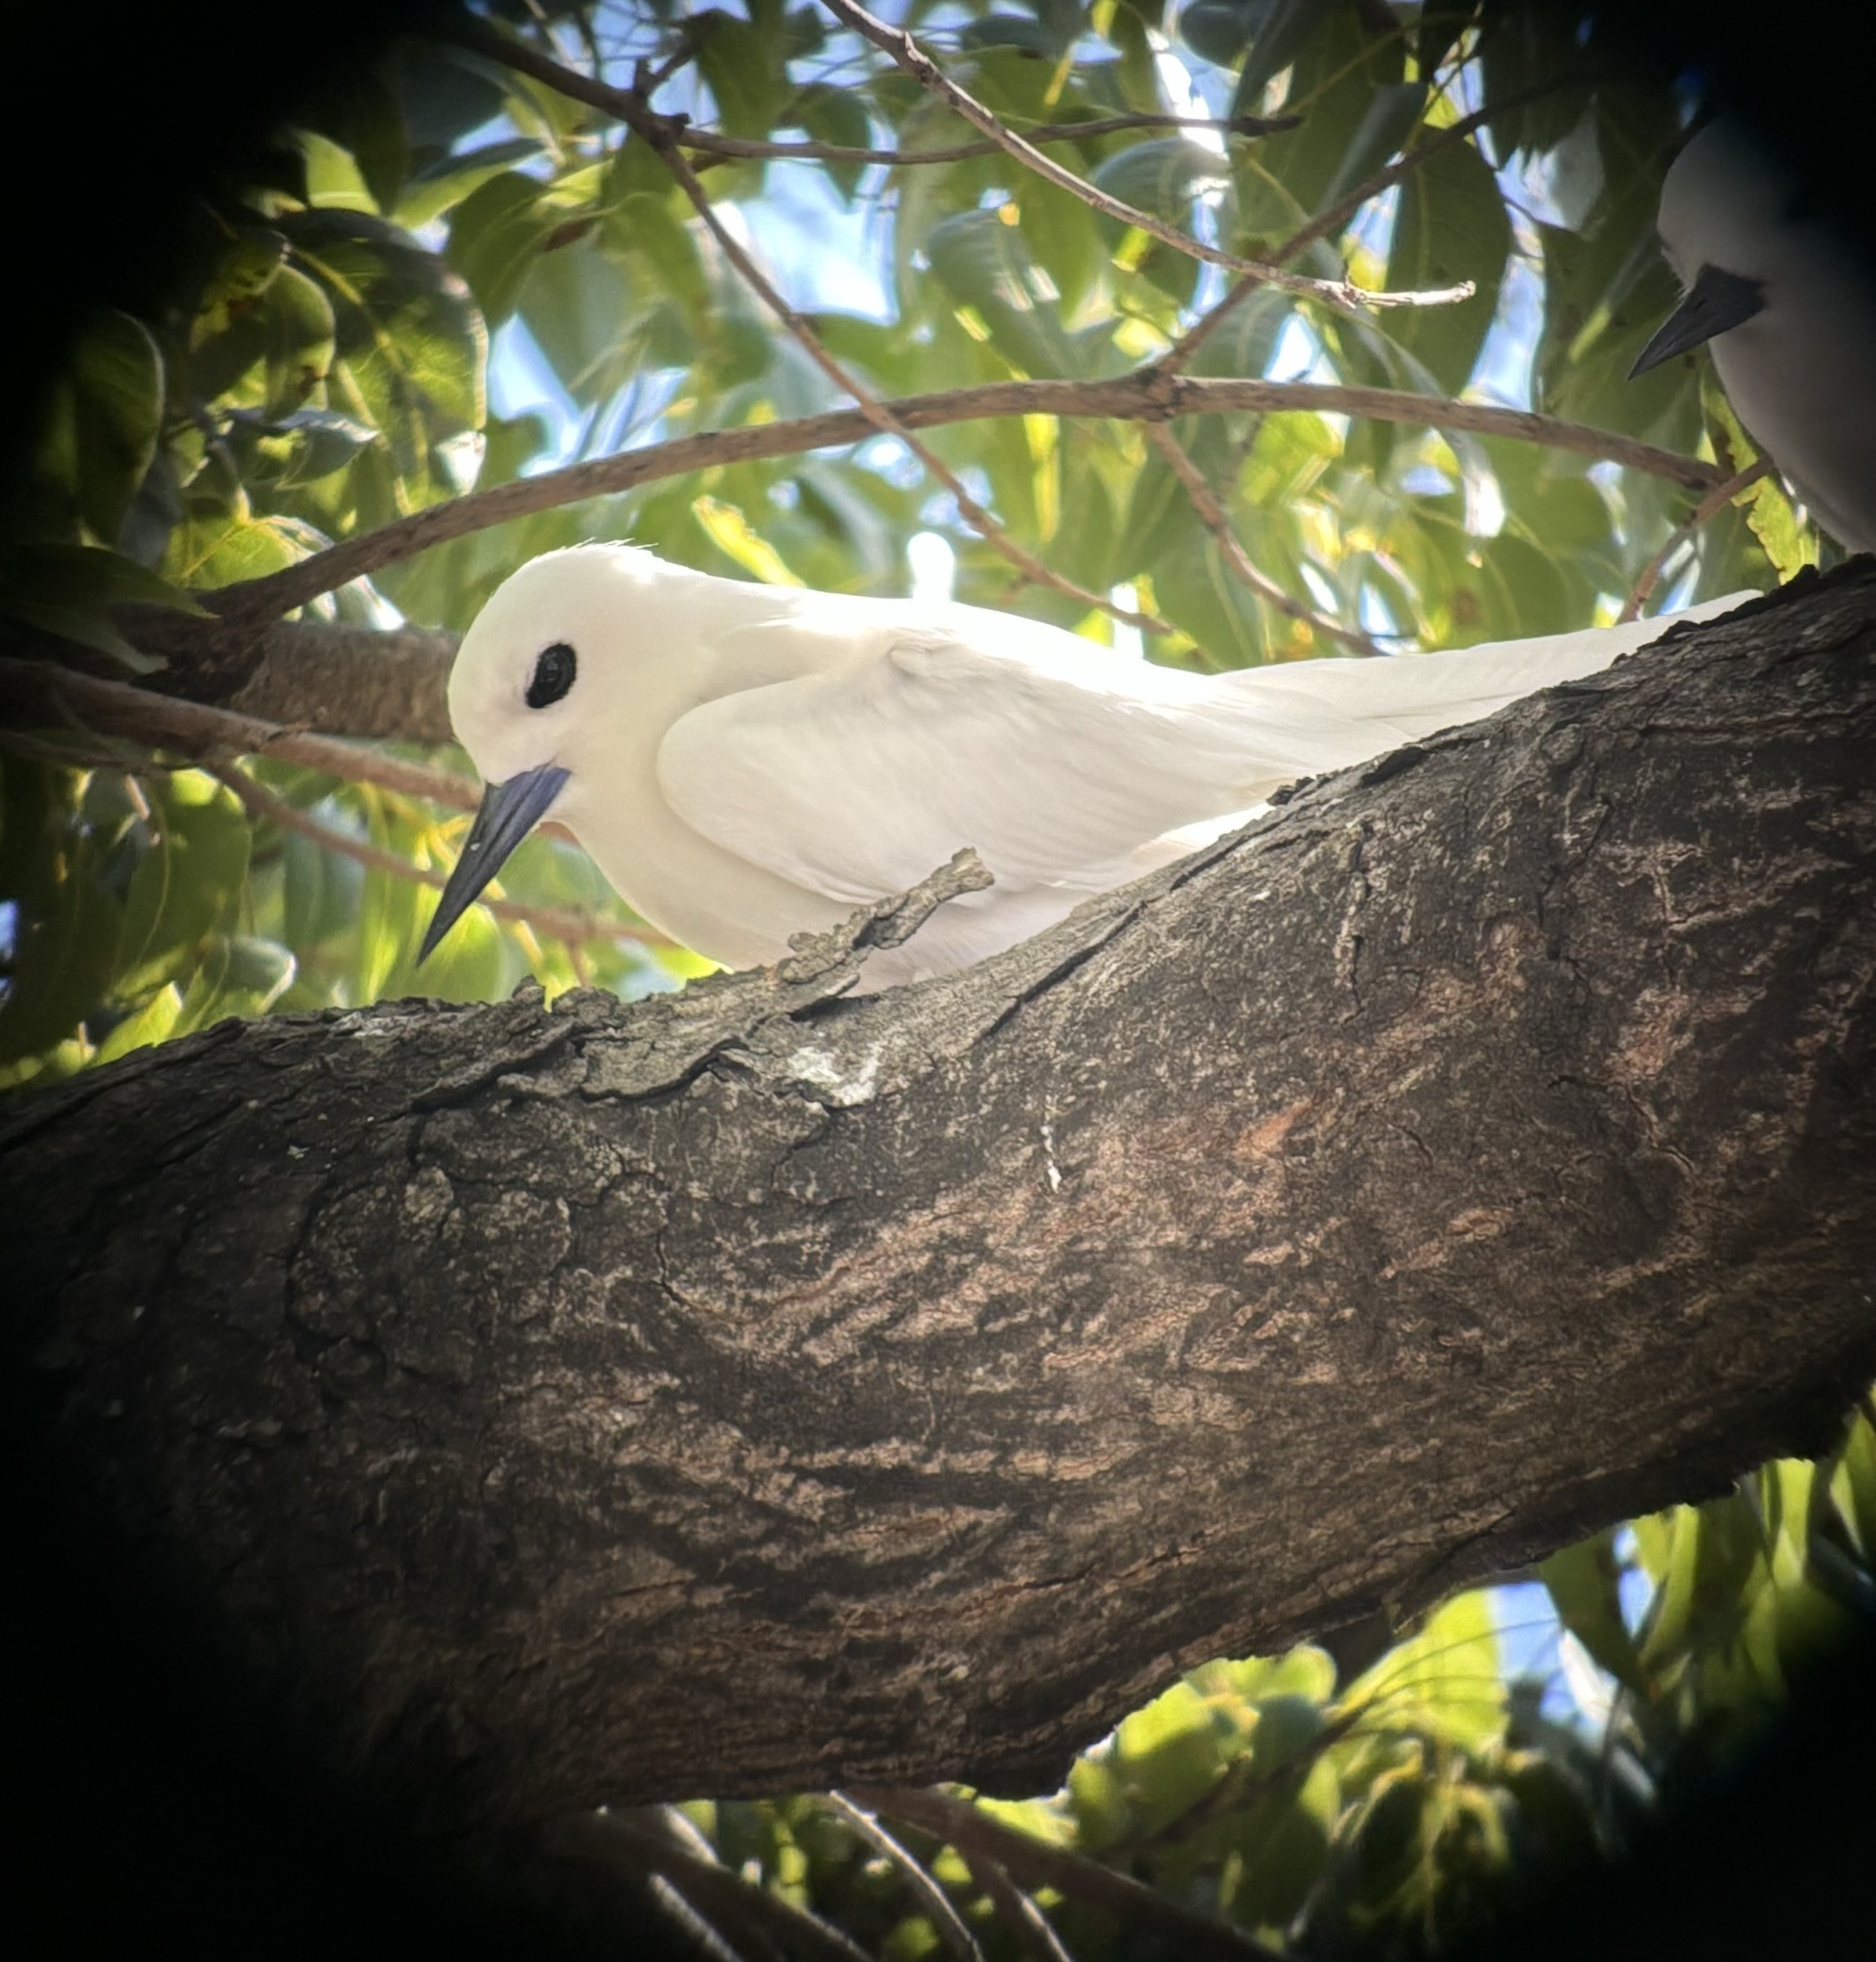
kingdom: Animalia
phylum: Chordata
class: Aves
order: Charadriiformes
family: Laridae
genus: Gygis
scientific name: Gygis alba
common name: White tern
